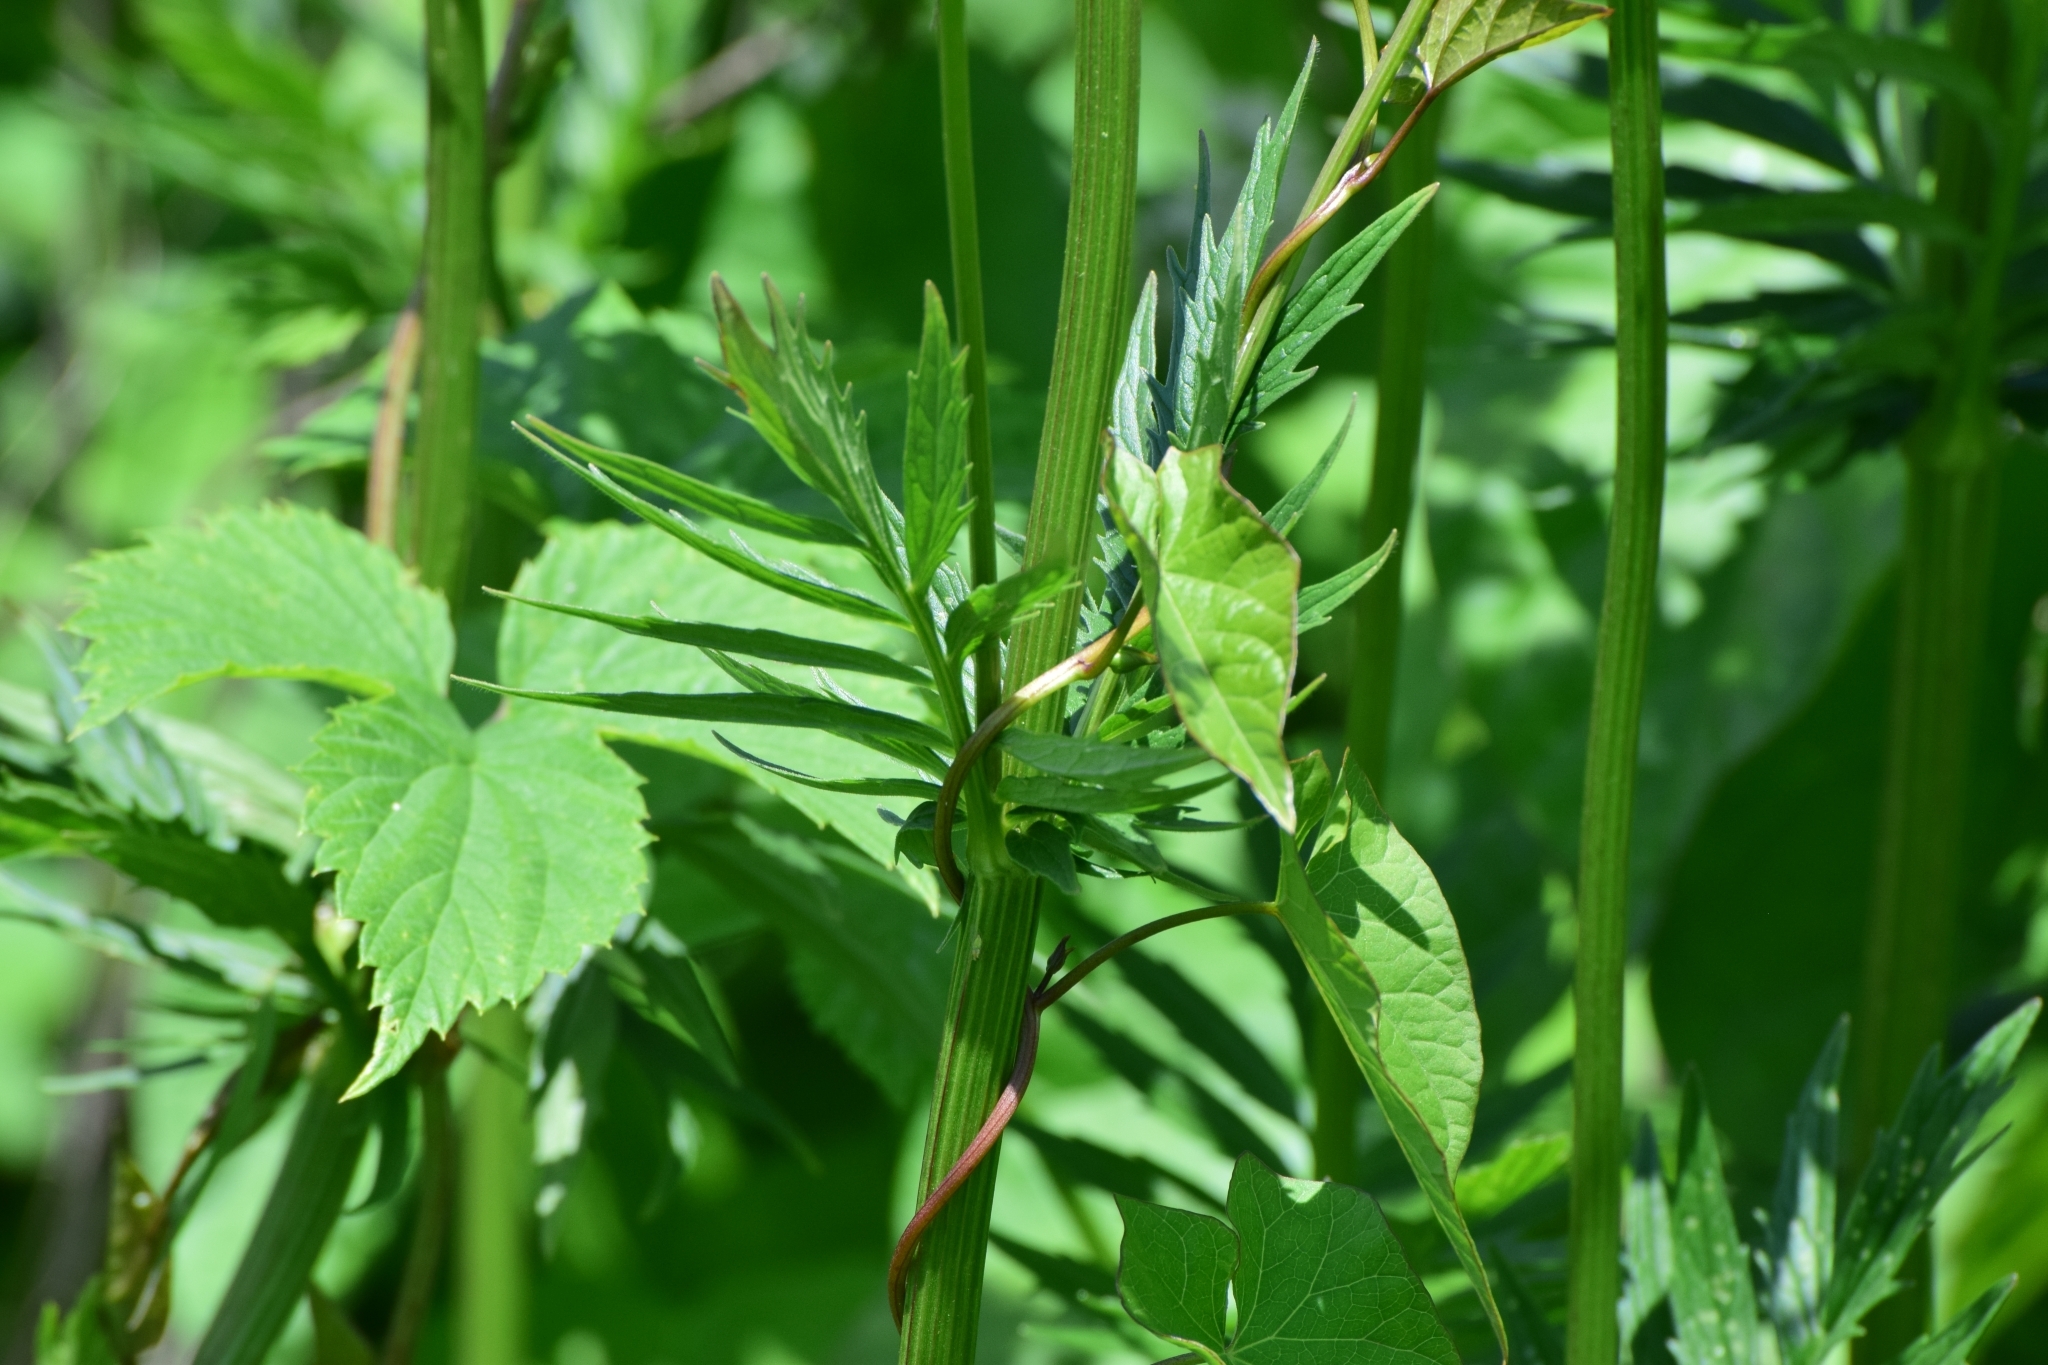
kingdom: Plantae
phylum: Tracheophyta
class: Magnoliopsida
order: Dipsacales
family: Caprifoliaceae
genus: Valeriana
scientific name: Valeriana officinalis
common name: Common valerian
